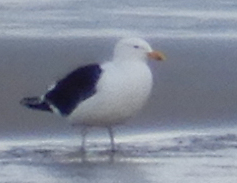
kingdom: Animalia
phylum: Chordata
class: Aves
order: Charadriiformes
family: Laridae
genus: Larus
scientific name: Larus dominicanus
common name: Kelp gull
